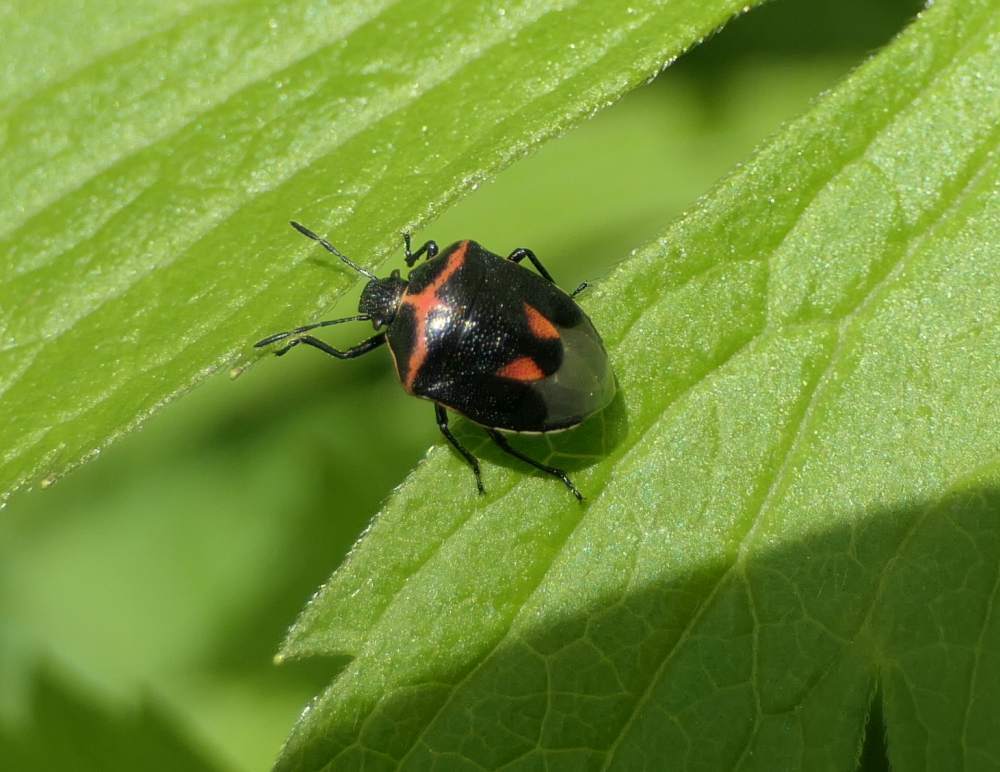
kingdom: Animalia
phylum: Arthropoda
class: Insecta
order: Hemiptera
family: Pentatomidae
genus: Cosmopepla
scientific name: Cosmopepla lintneriana
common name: Twice-stabbed stink bug
